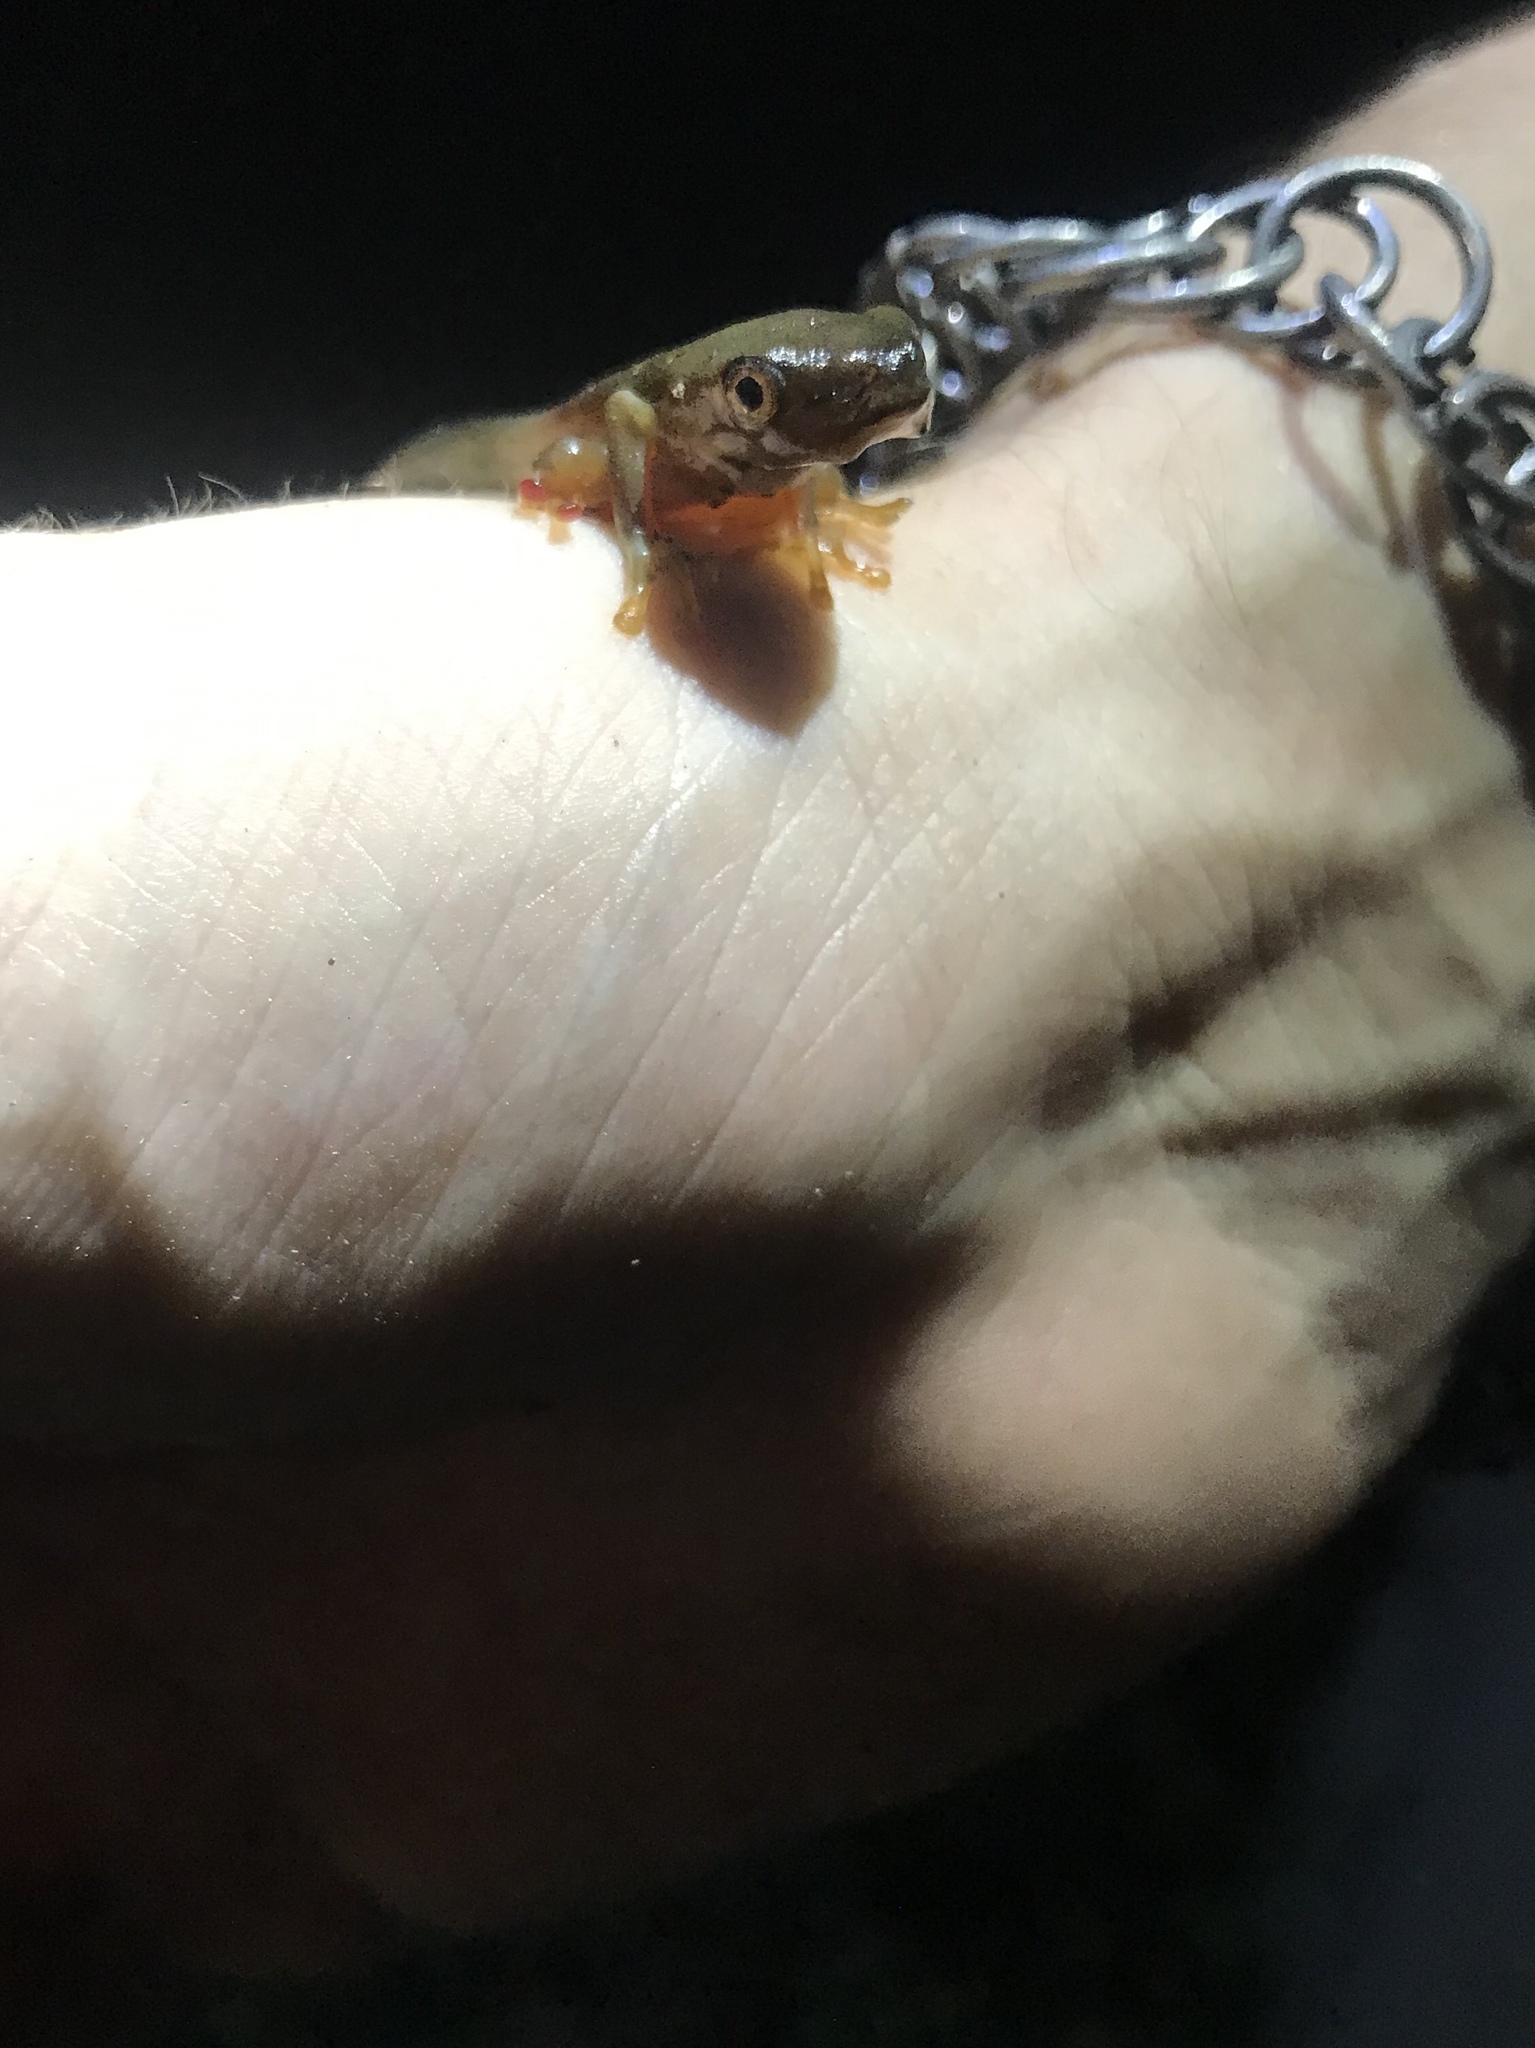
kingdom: Animalia
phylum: Chordata
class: Amphibia
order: Anura
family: Phyllomedusidae
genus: Agalychnis
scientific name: Agalychnis callidryas
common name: Red-eyed treefrog
